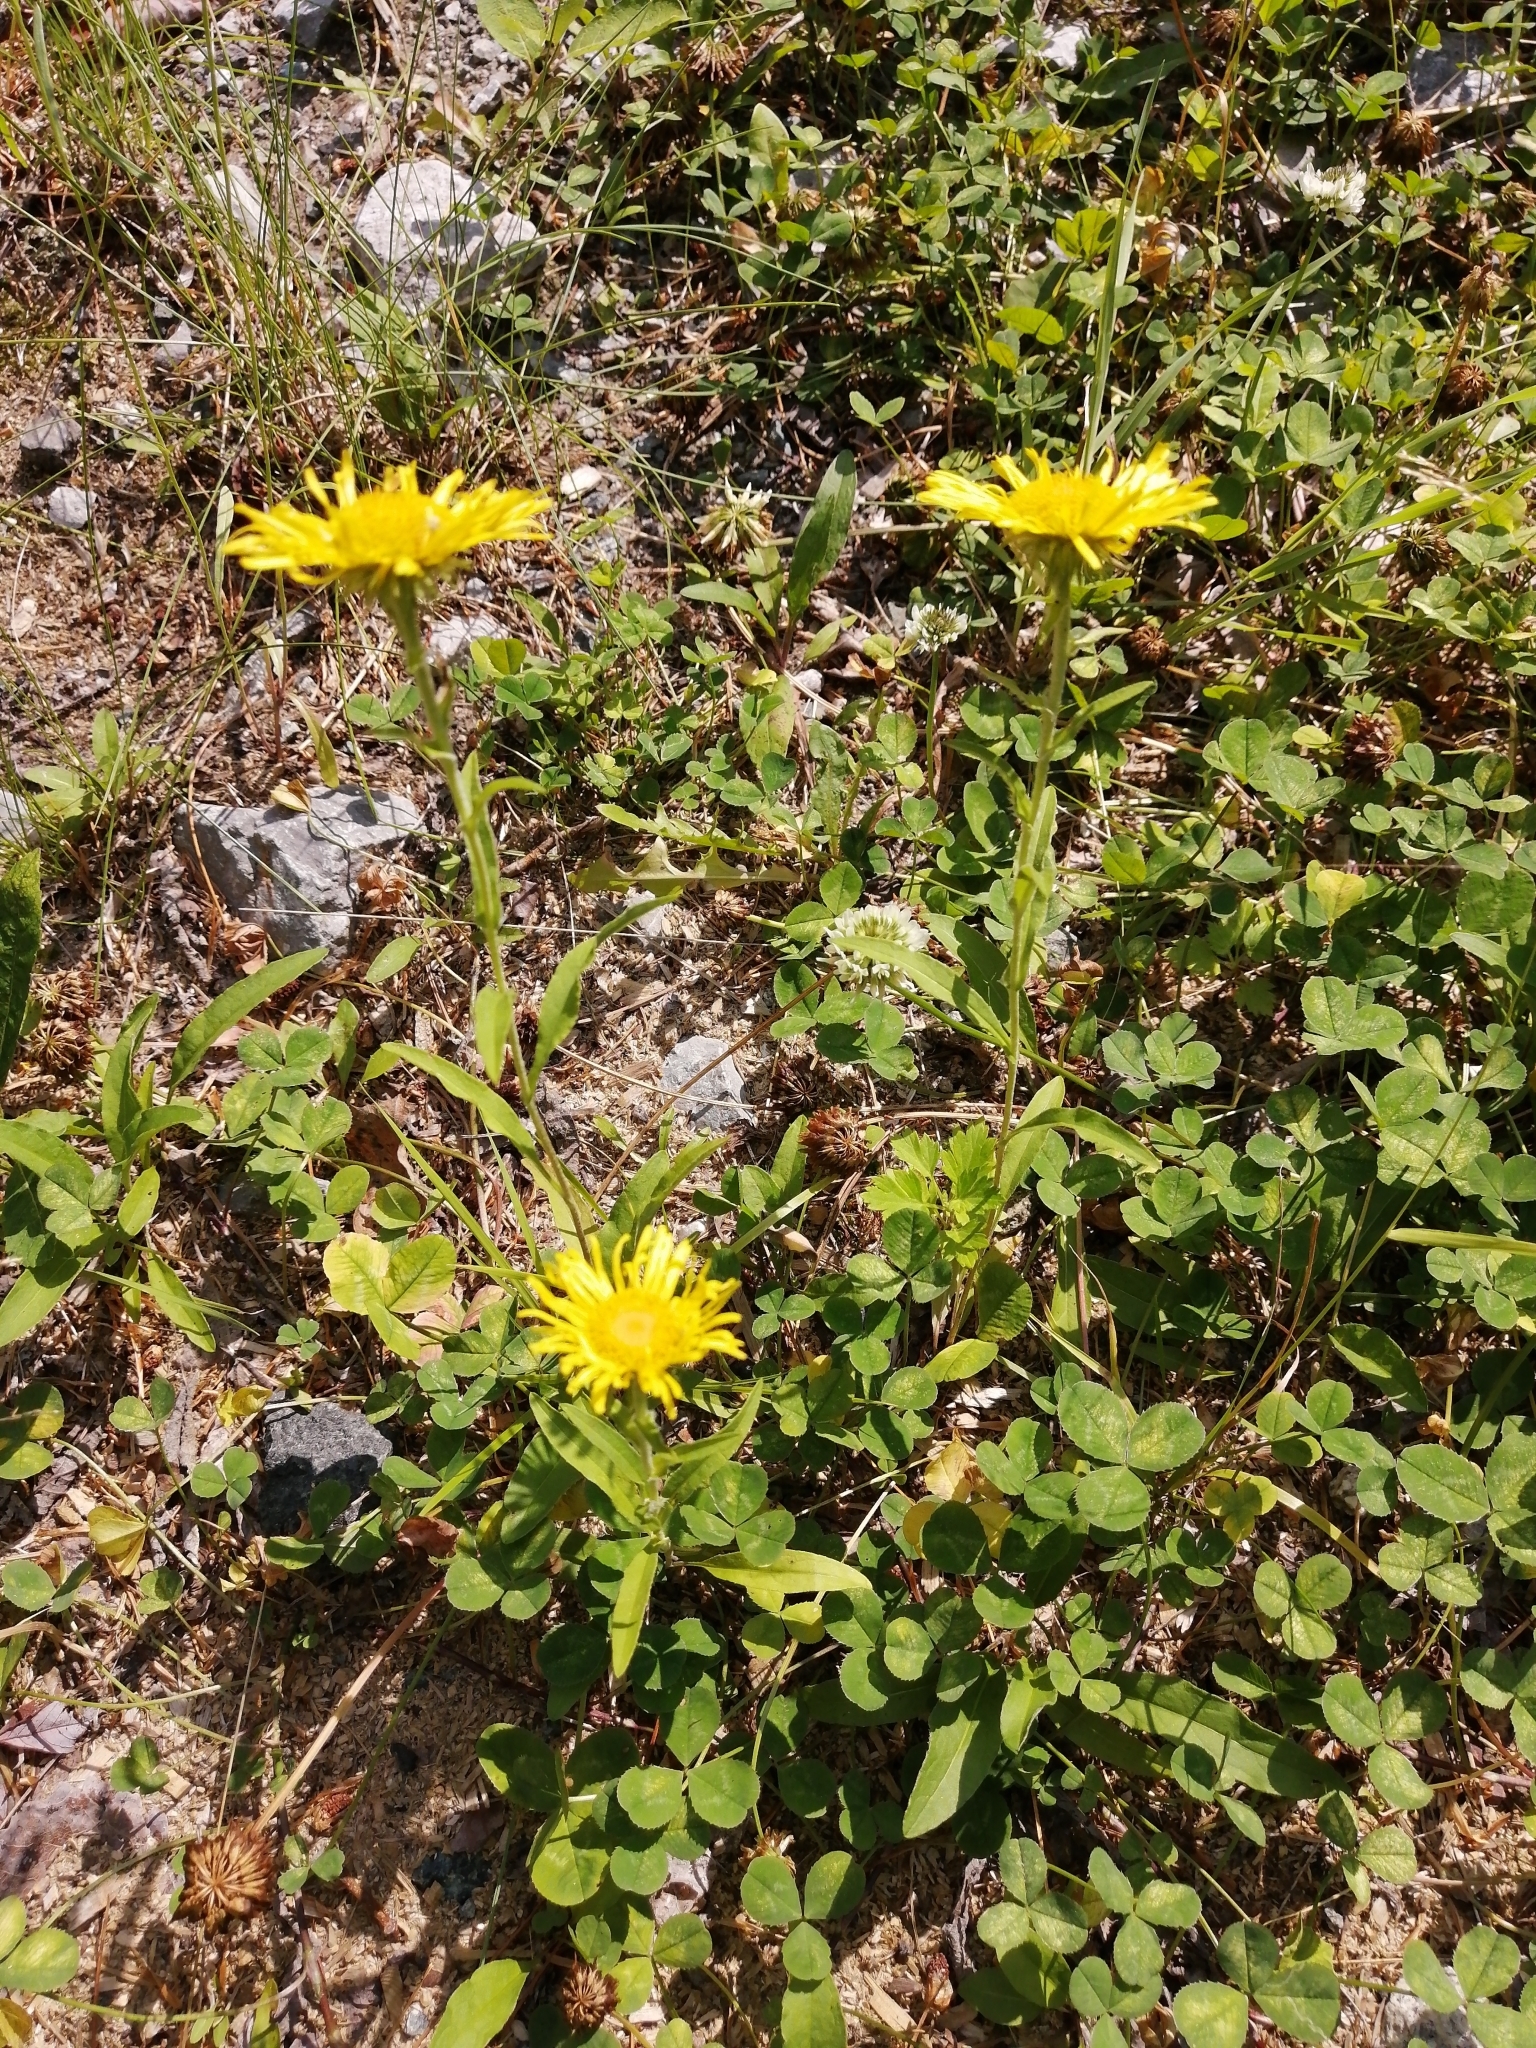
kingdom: Plantae
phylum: Tracheophyta
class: Magnoliopsida
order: Asterales
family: Asteraceae
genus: Pentanema
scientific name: Pentanema britannicum
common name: British elecampane
